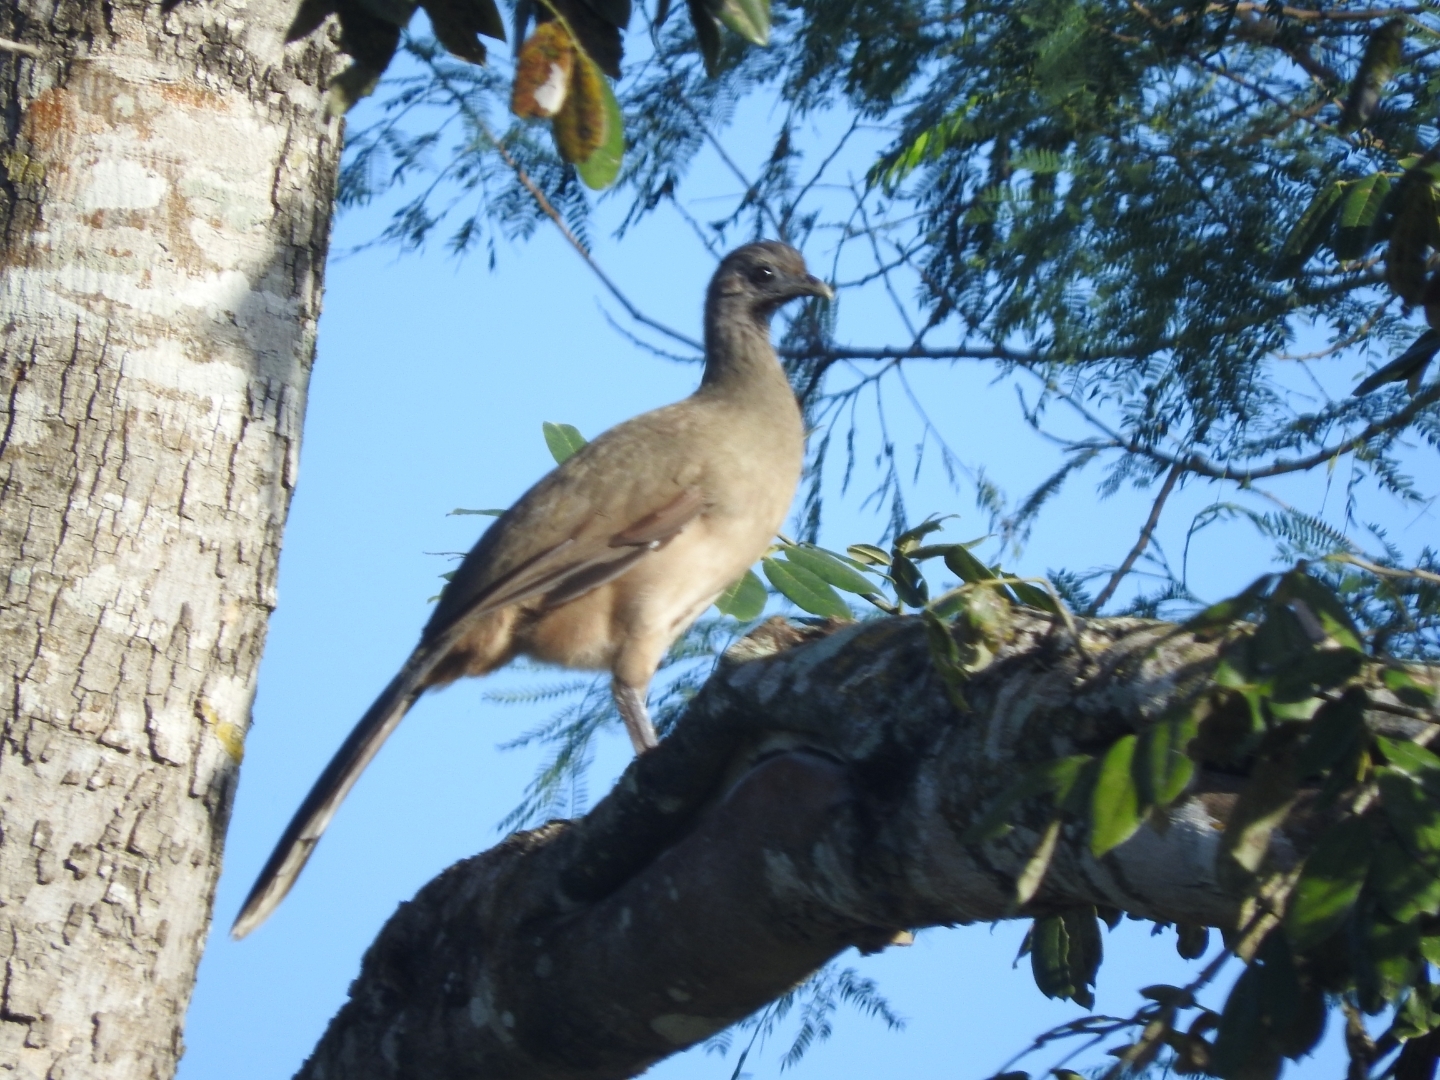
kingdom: Animalia
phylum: Chordata
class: Aves
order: Galliformes
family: Cracidae
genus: Ortalis
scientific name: Ortalis vetula
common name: Plain chachalaca
